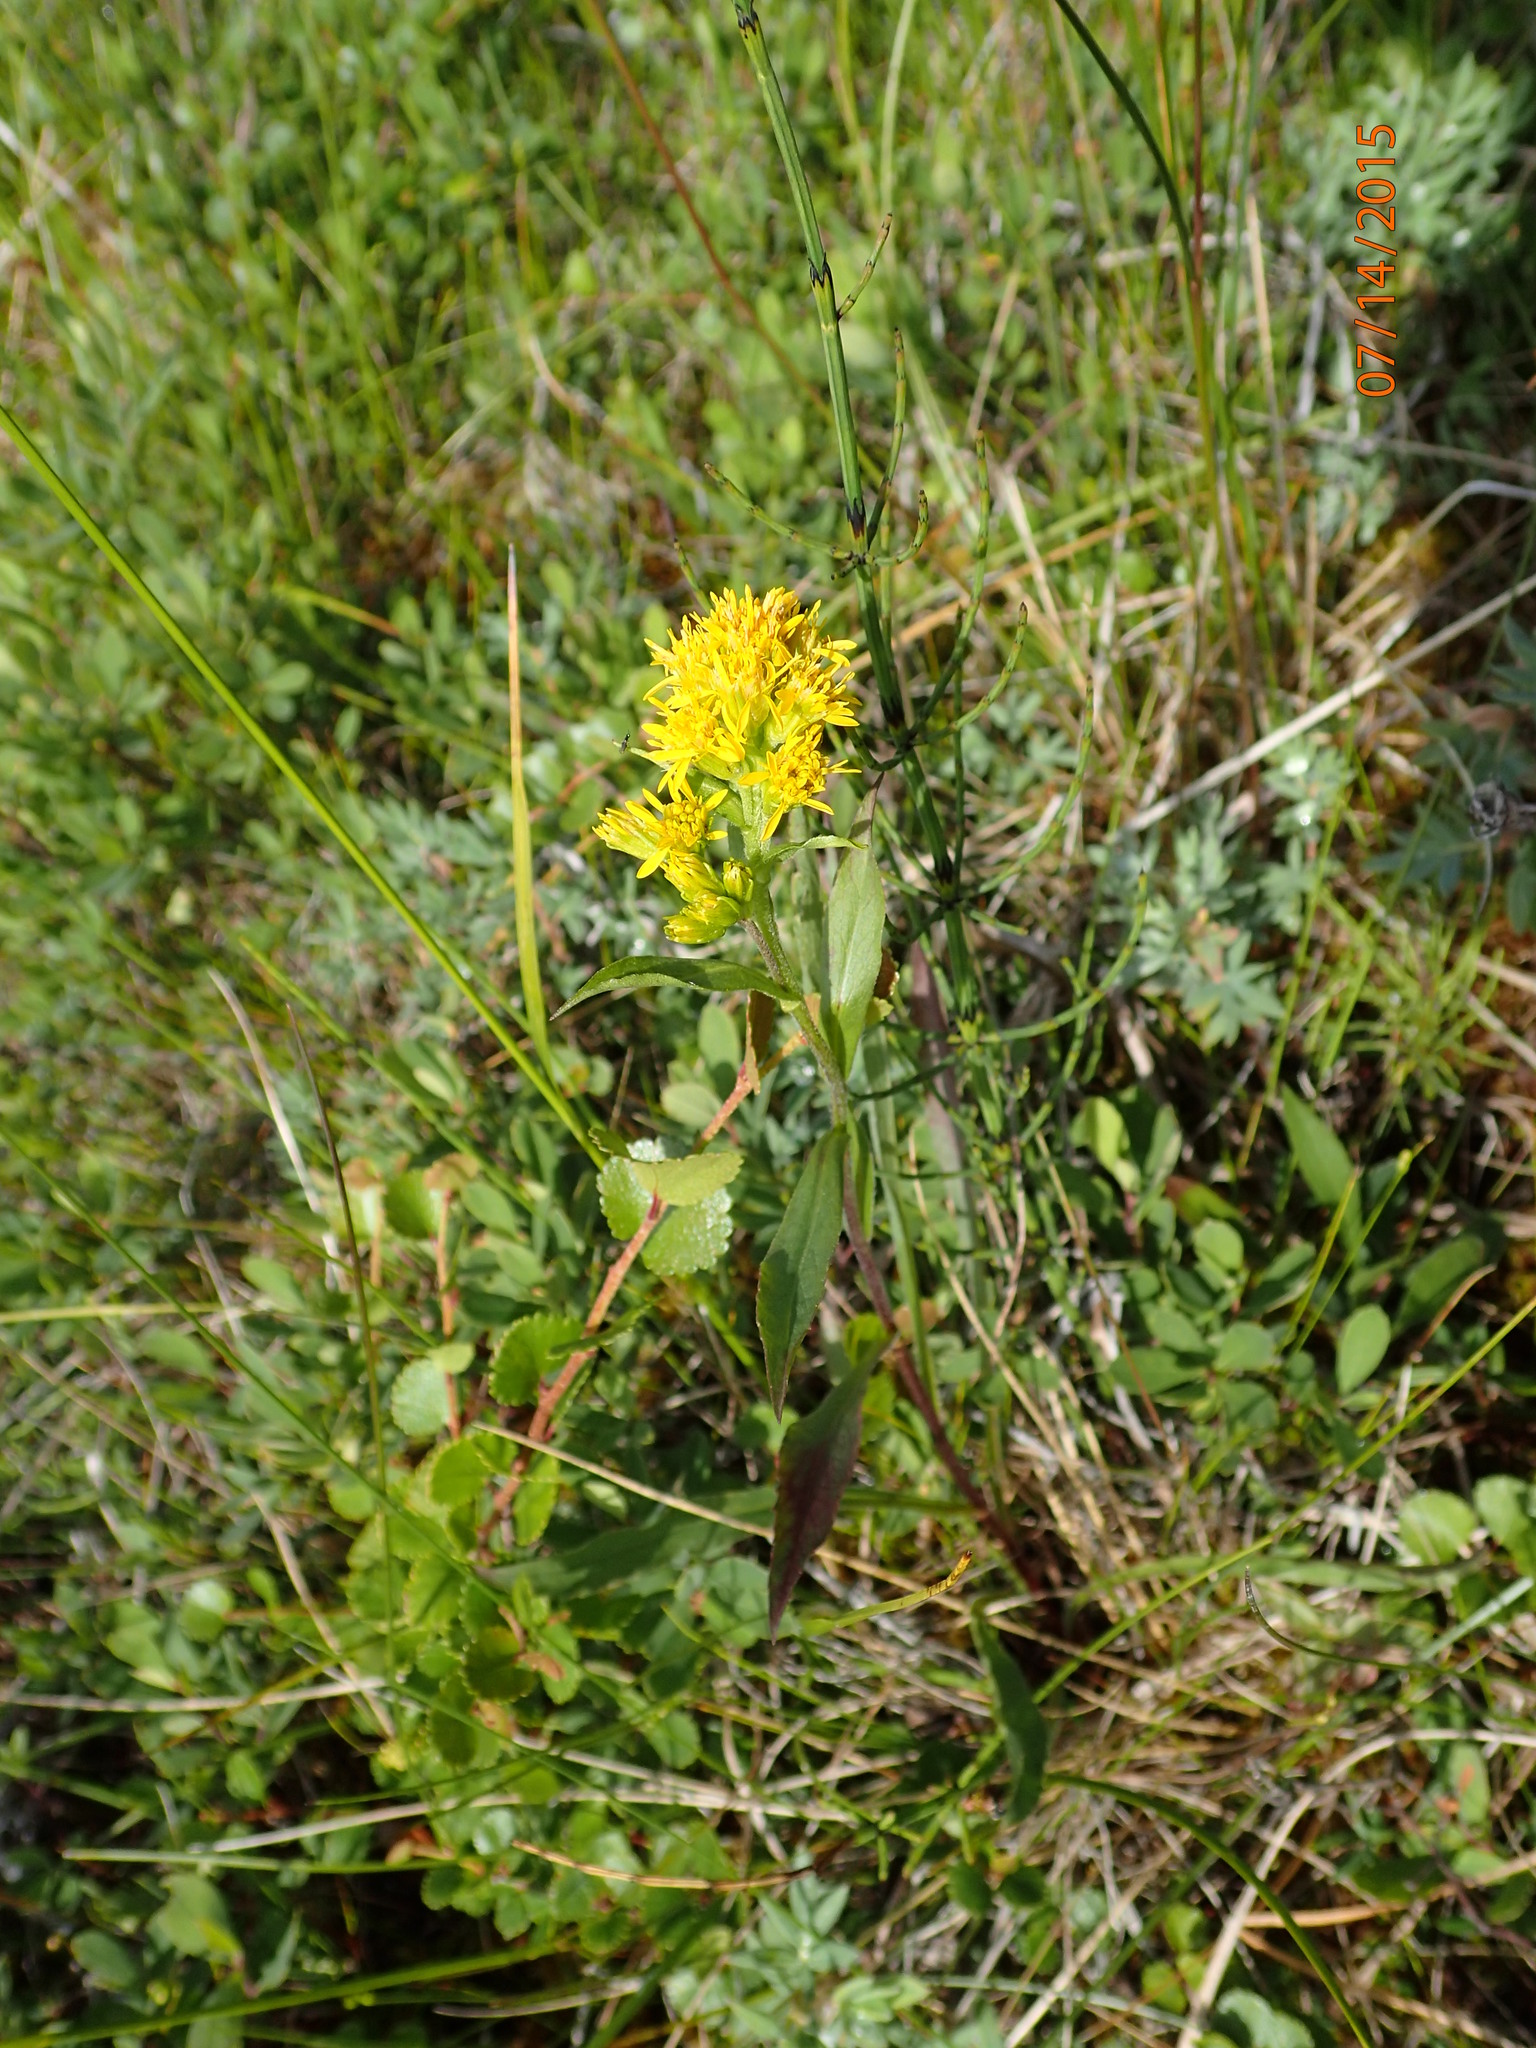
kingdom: Plantae
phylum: Tracheophyta
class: Magnoliopsida
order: Asterales
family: Asteraceae
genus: Solidago
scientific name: Solidago multiradiata
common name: Northern goldenrod
